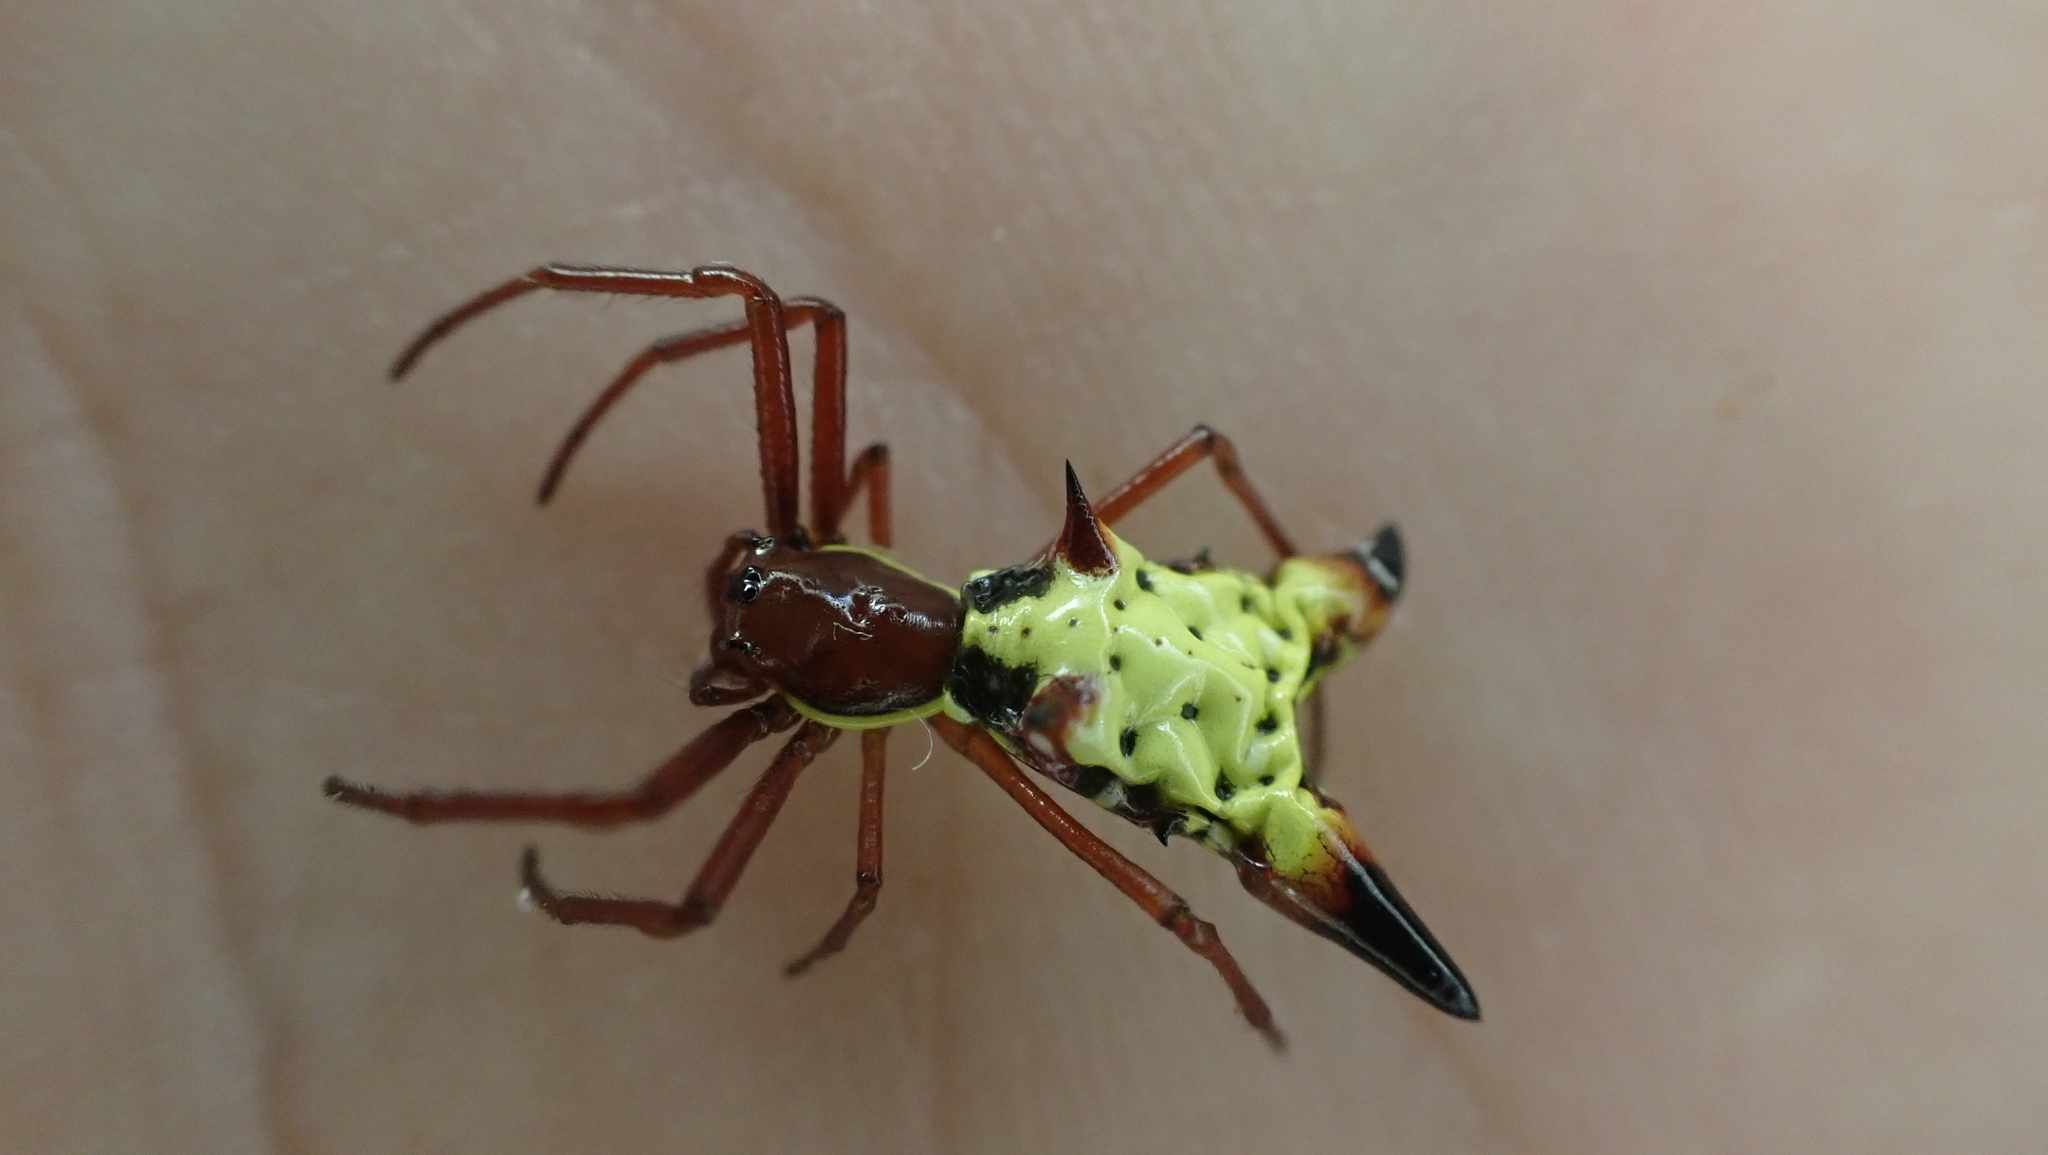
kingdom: Animalia
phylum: Arthropoda
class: Arachnida
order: Araneae
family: Araneidae
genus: Micrathena
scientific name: Micrathena sagittata
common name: Orb weavers
